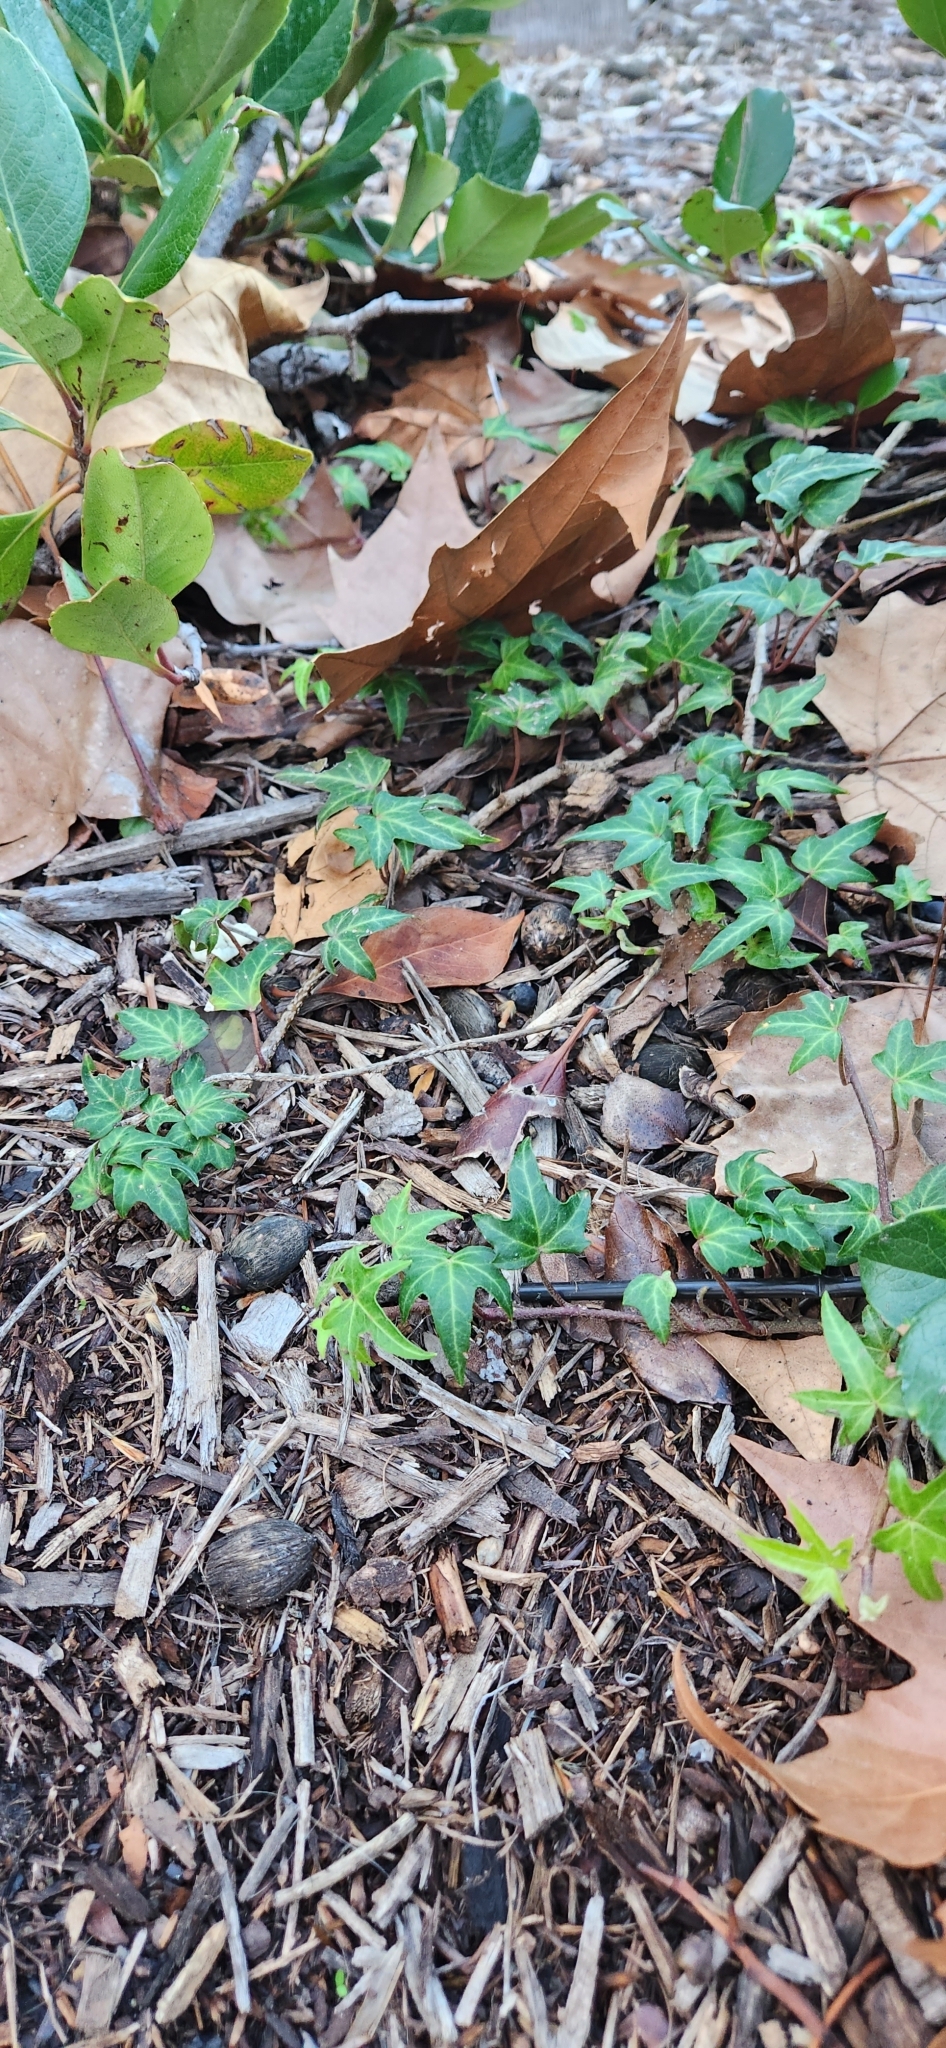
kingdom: Plantae
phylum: Tracheophyta
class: Magnoliopsida
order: Apiales
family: Araliaceae
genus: Hedera
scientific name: Hedera helix
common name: Ivy
